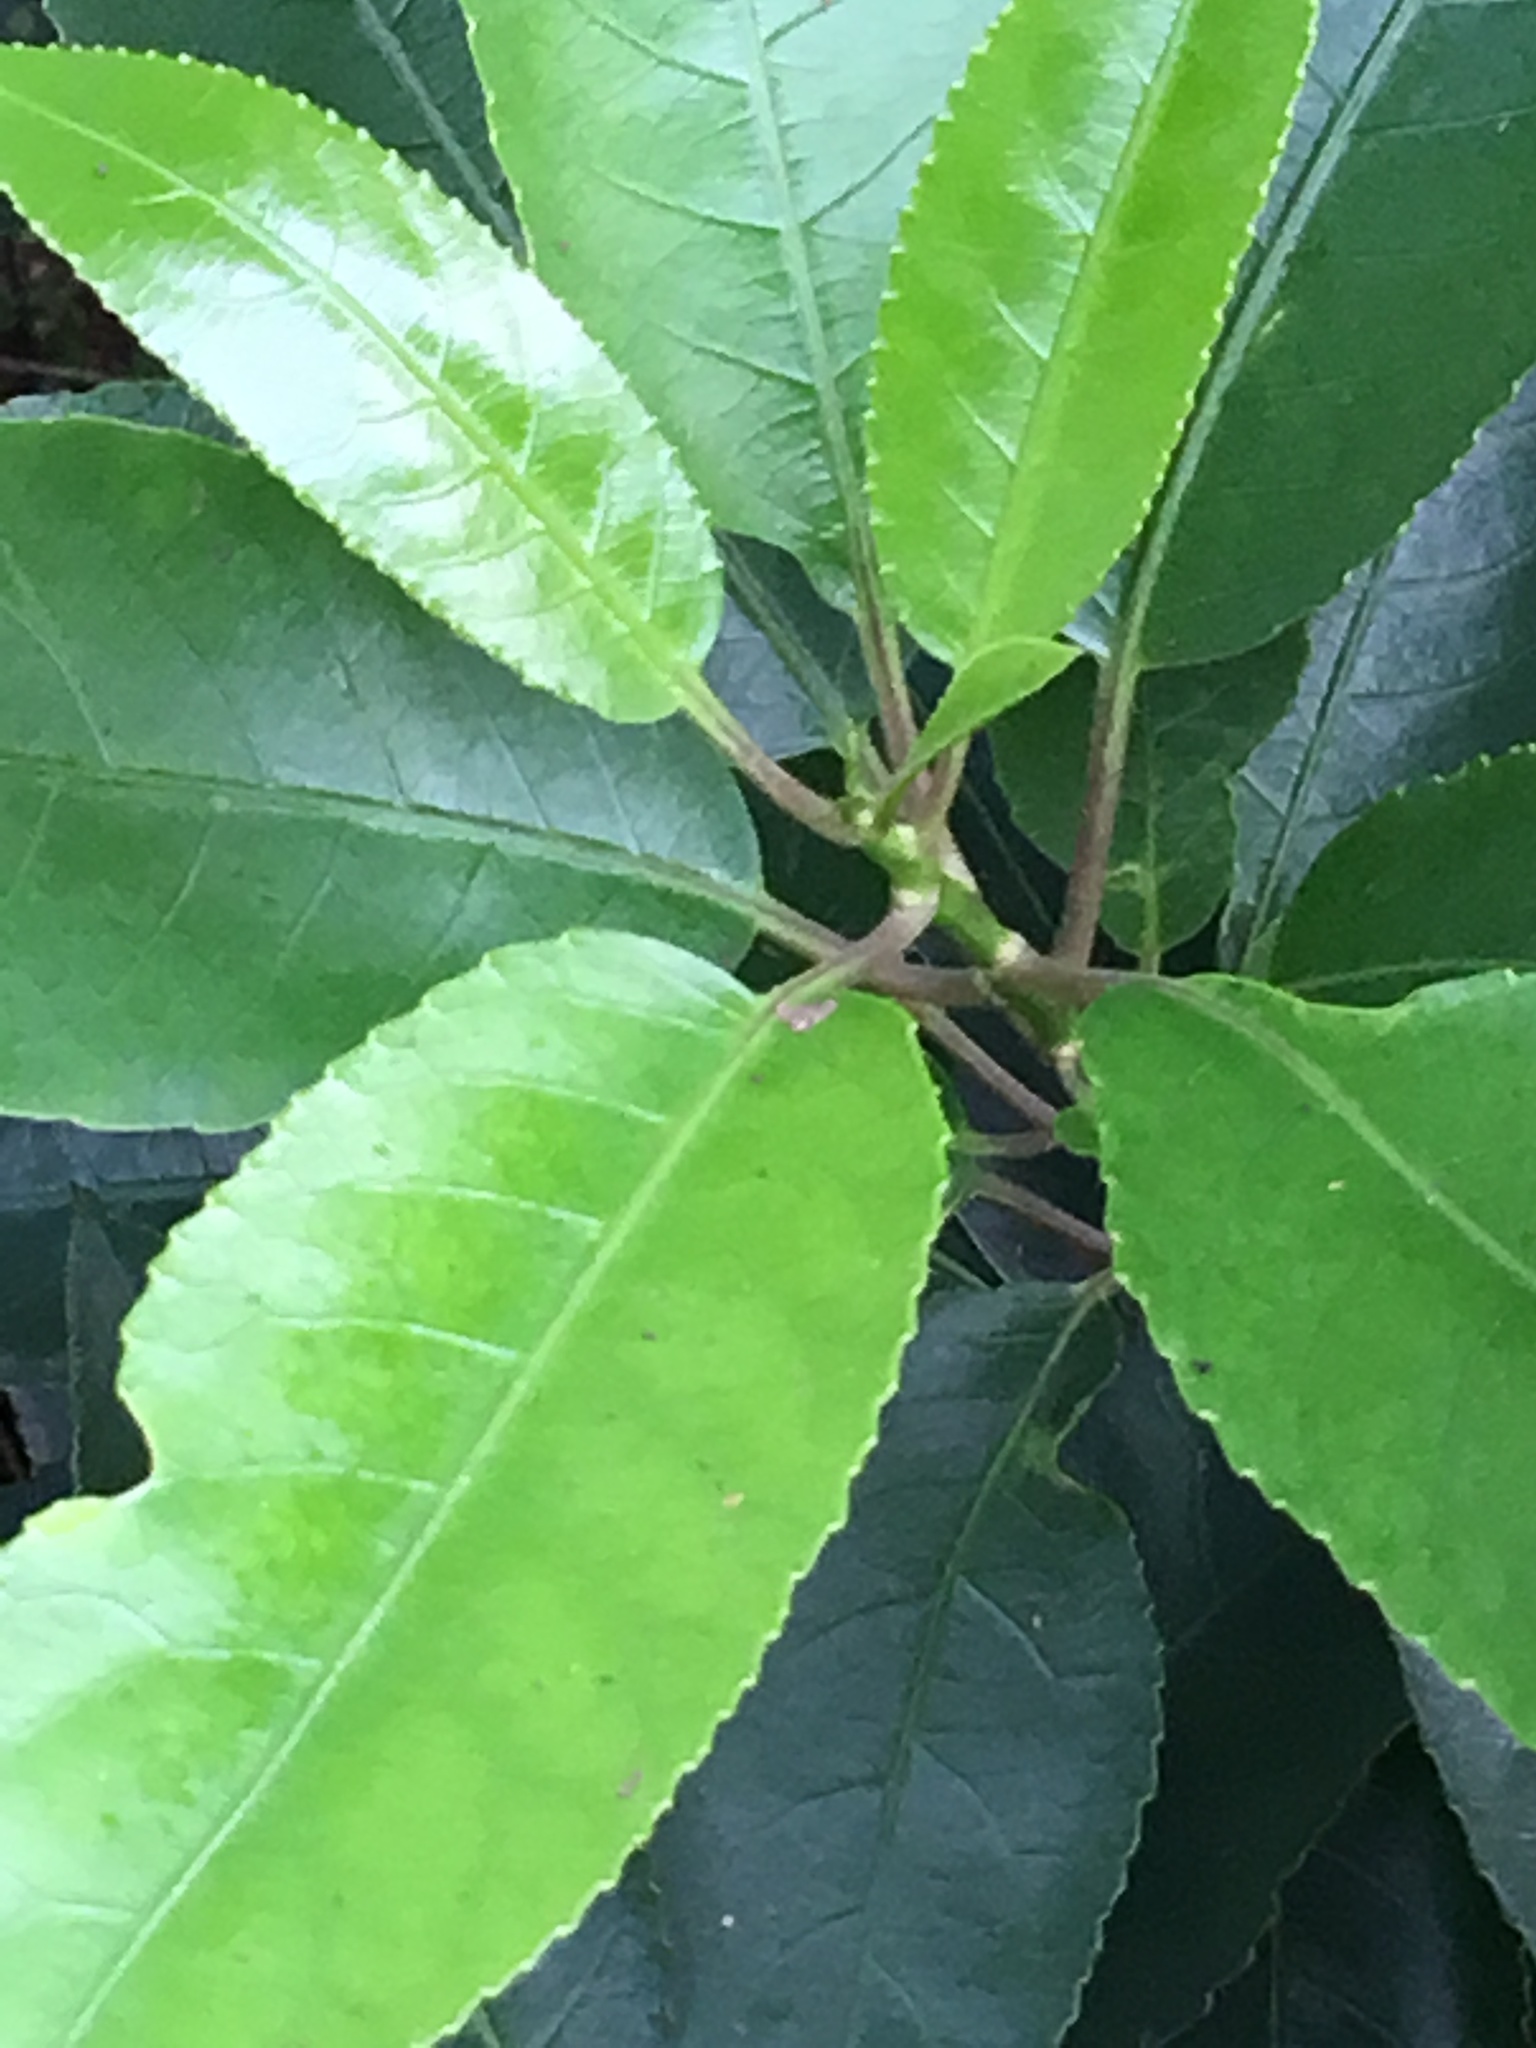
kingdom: Plantae
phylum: Tracheophyta
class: Magnoliopsida
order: Malpighiales
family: Violaceae
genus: Melicytus
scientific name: Melicytus ramiflorus
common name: Mahoe
